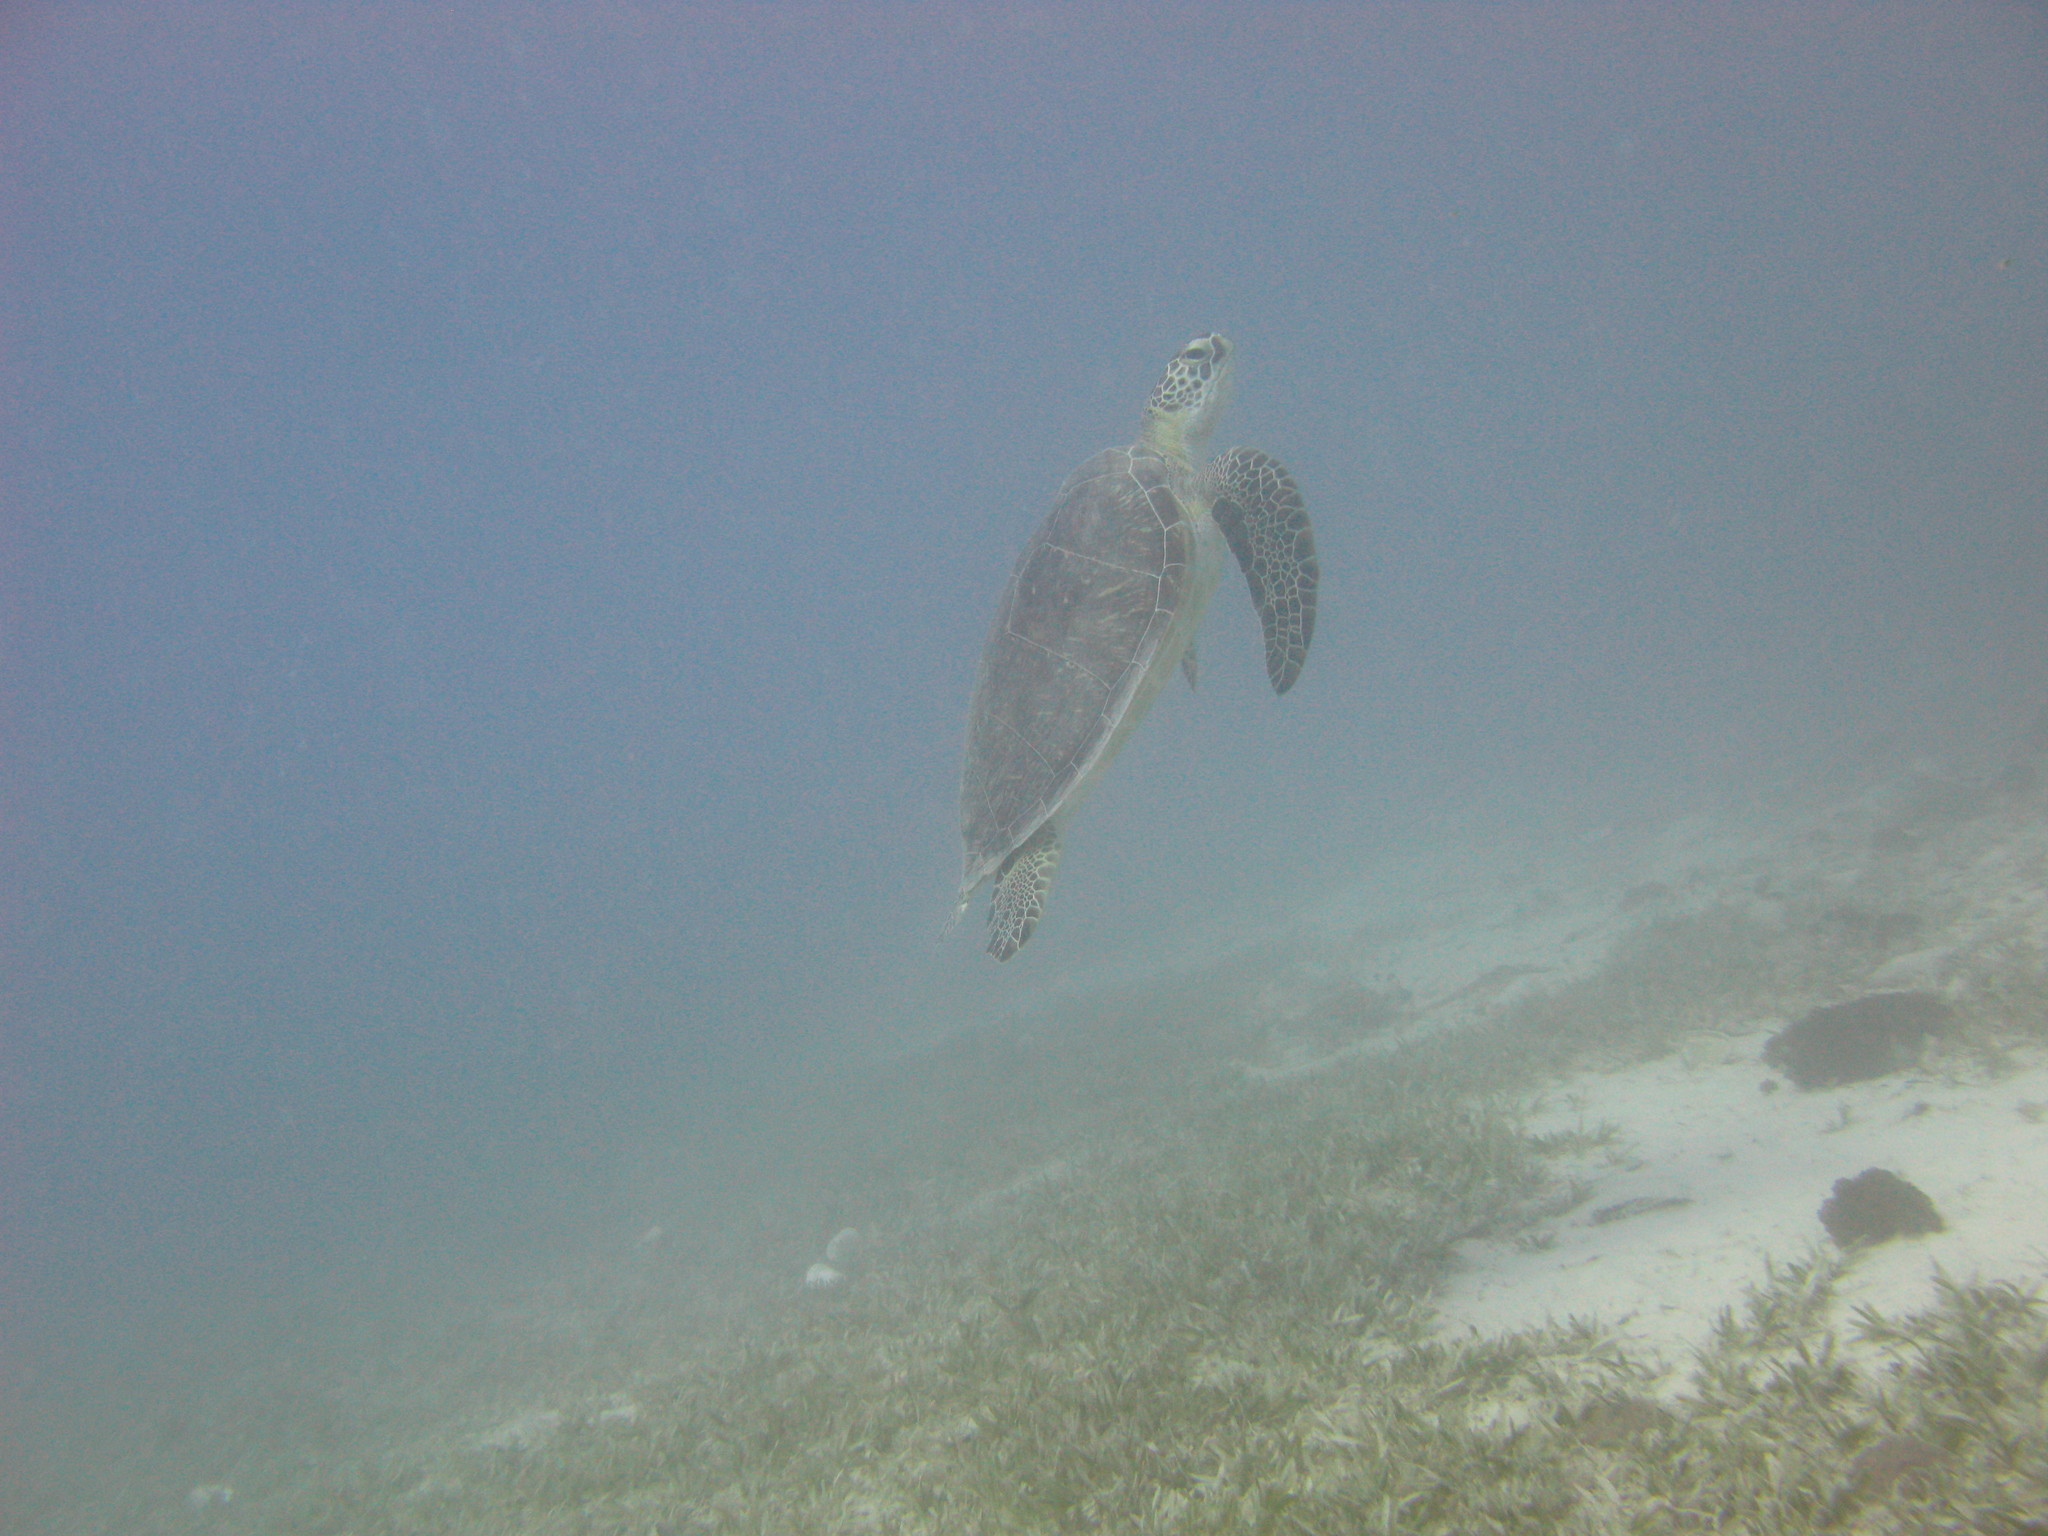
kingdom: Animalia
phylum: Chordata
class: Testudines
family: Cheloniidae
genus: Chelonia
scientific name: Chelonia mydas
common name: Green turtle
